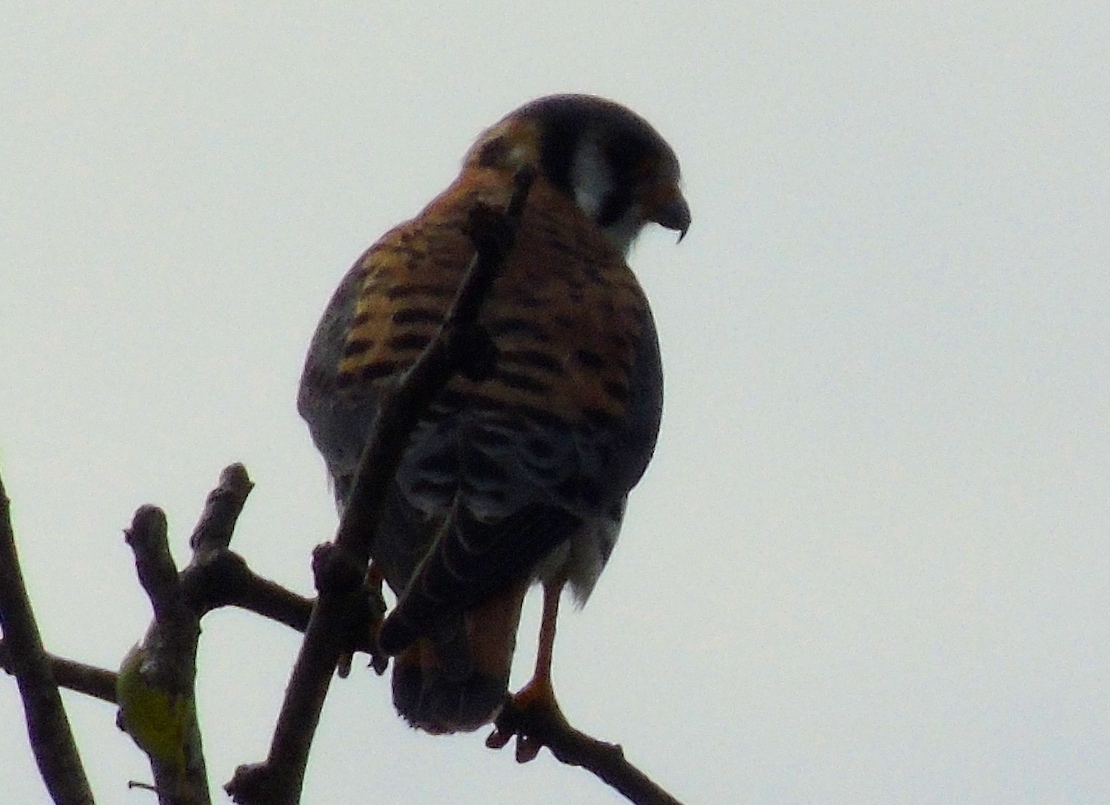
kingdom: Animalia
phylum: Chordata
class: Aves
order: Falconiformes
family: Falconidae
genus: Falco
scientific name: Falco sparverius
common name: American kestrel
